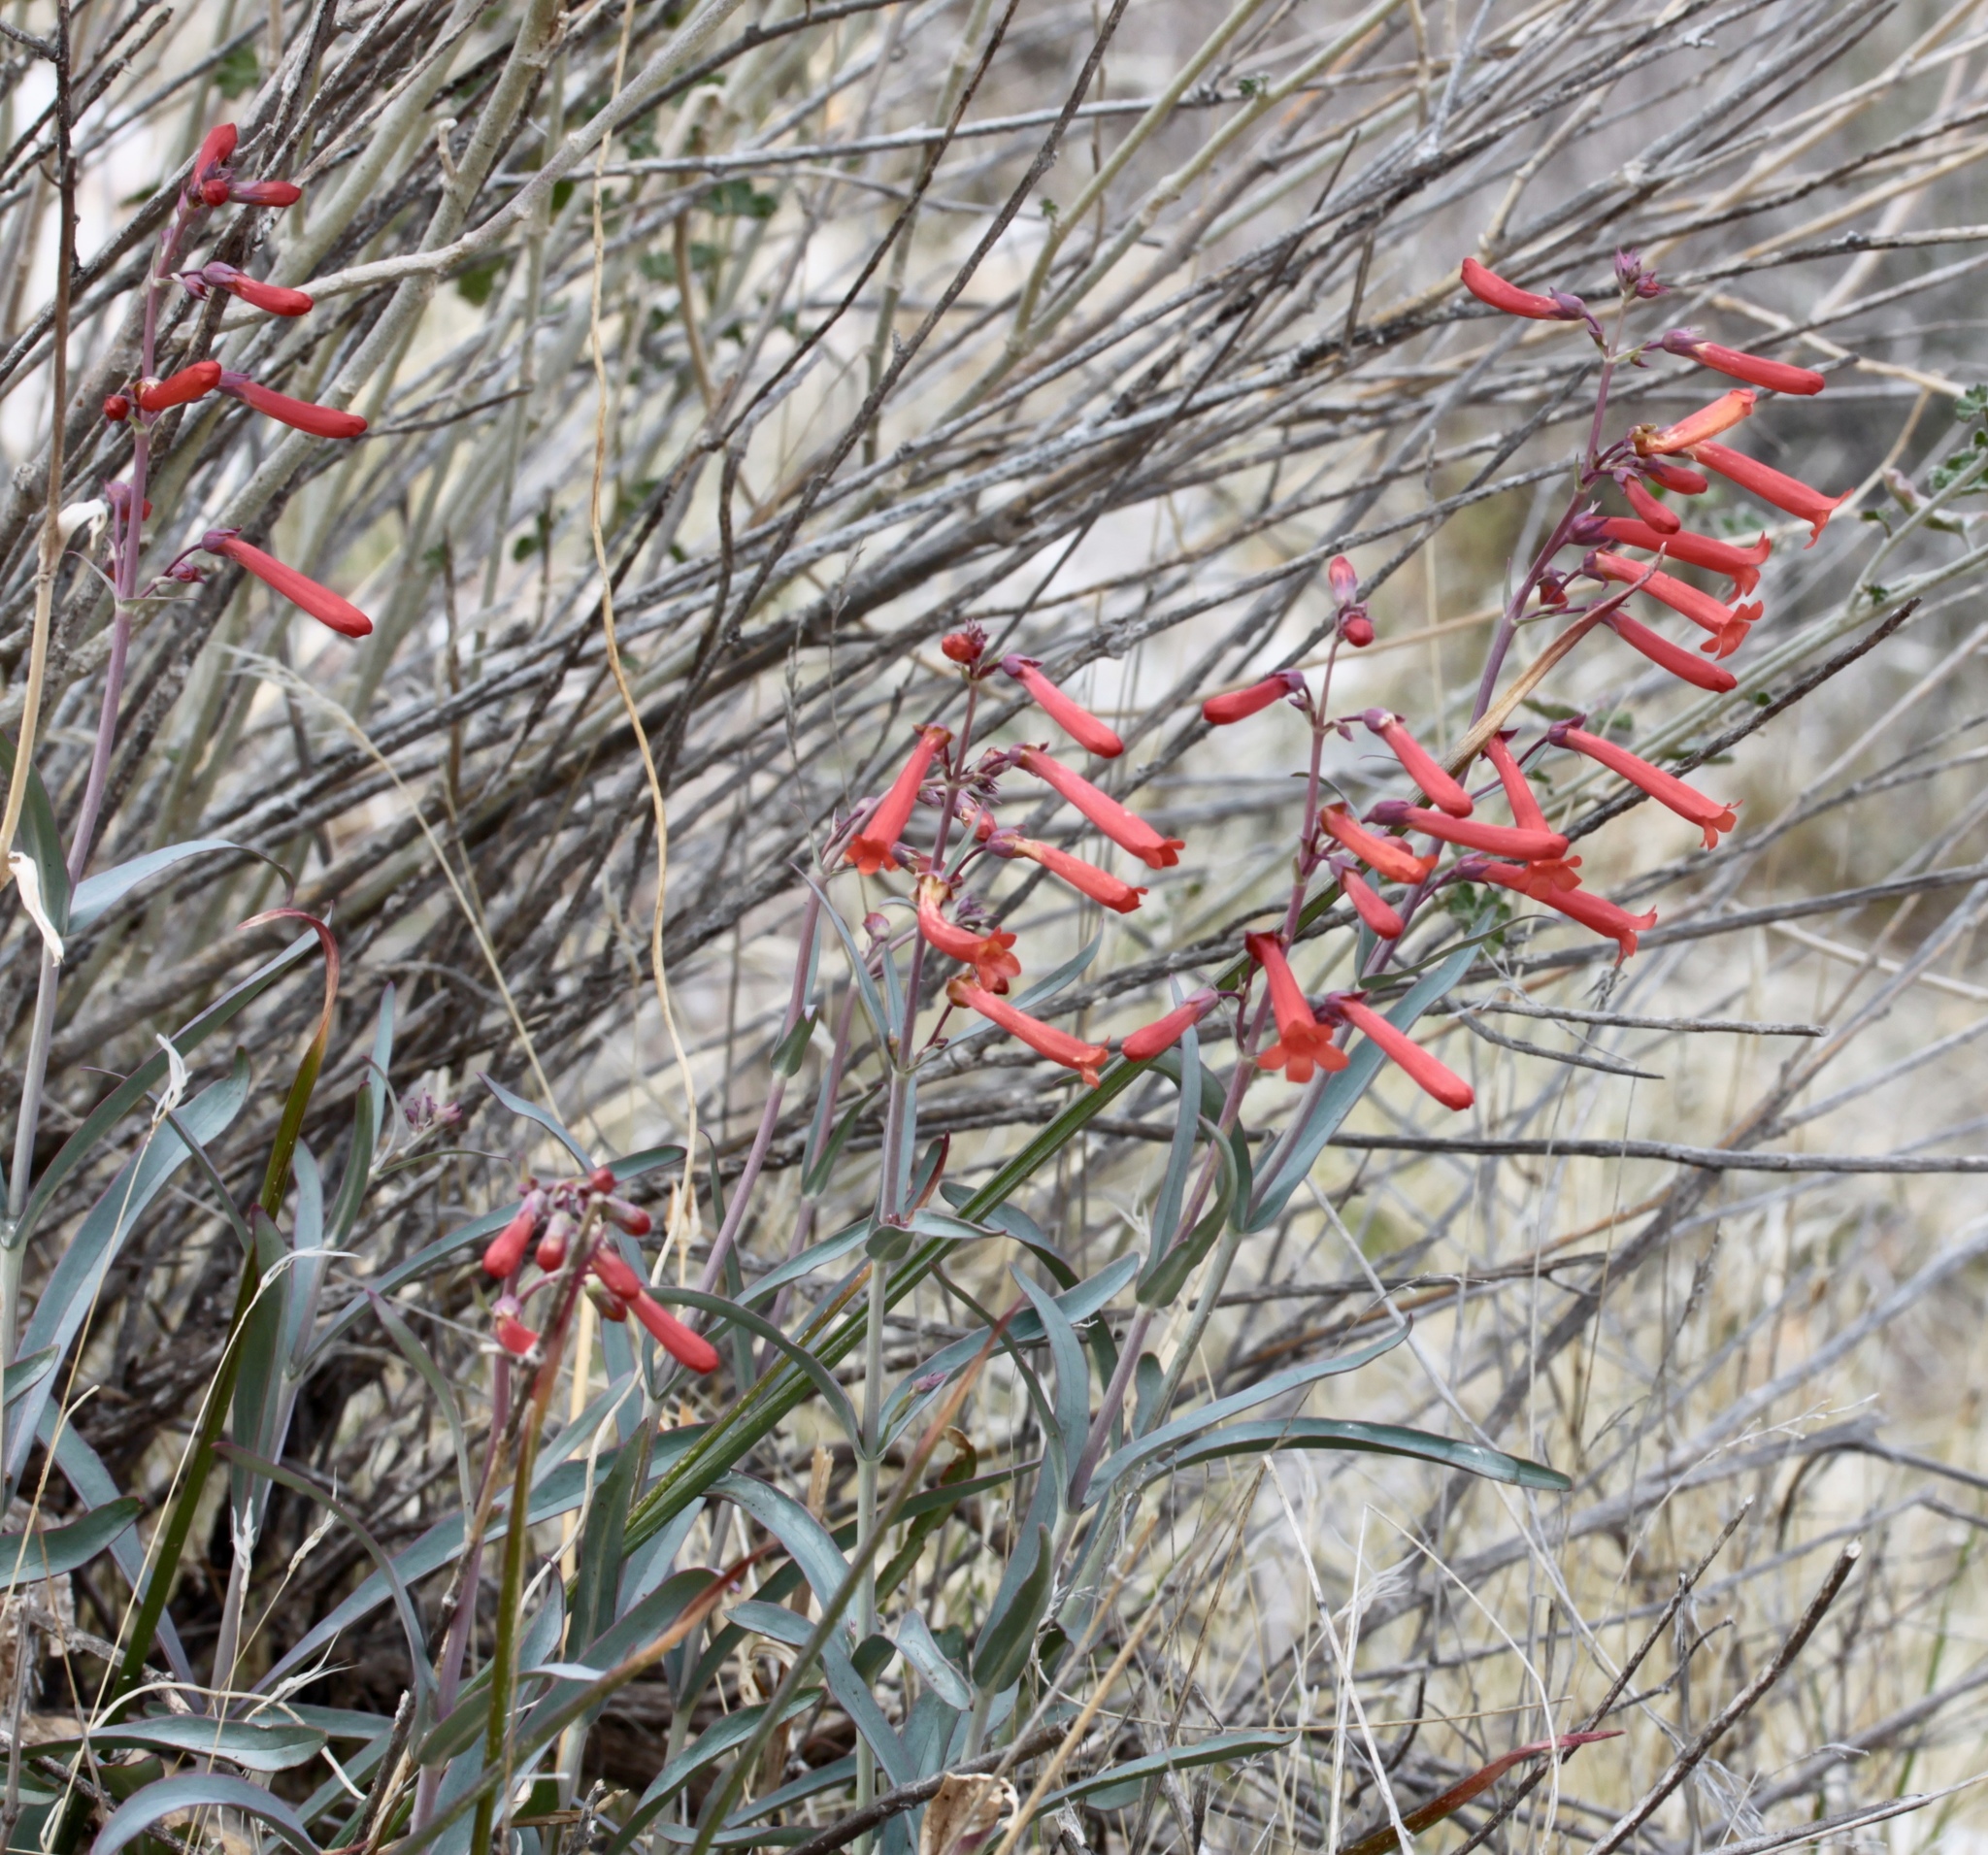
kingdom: Plantae
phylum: Tracheophyta
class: Magnoliopsida
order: Lamiales
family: Plantaginaceae
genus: Penstemon
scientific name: Penstemon subulatus
